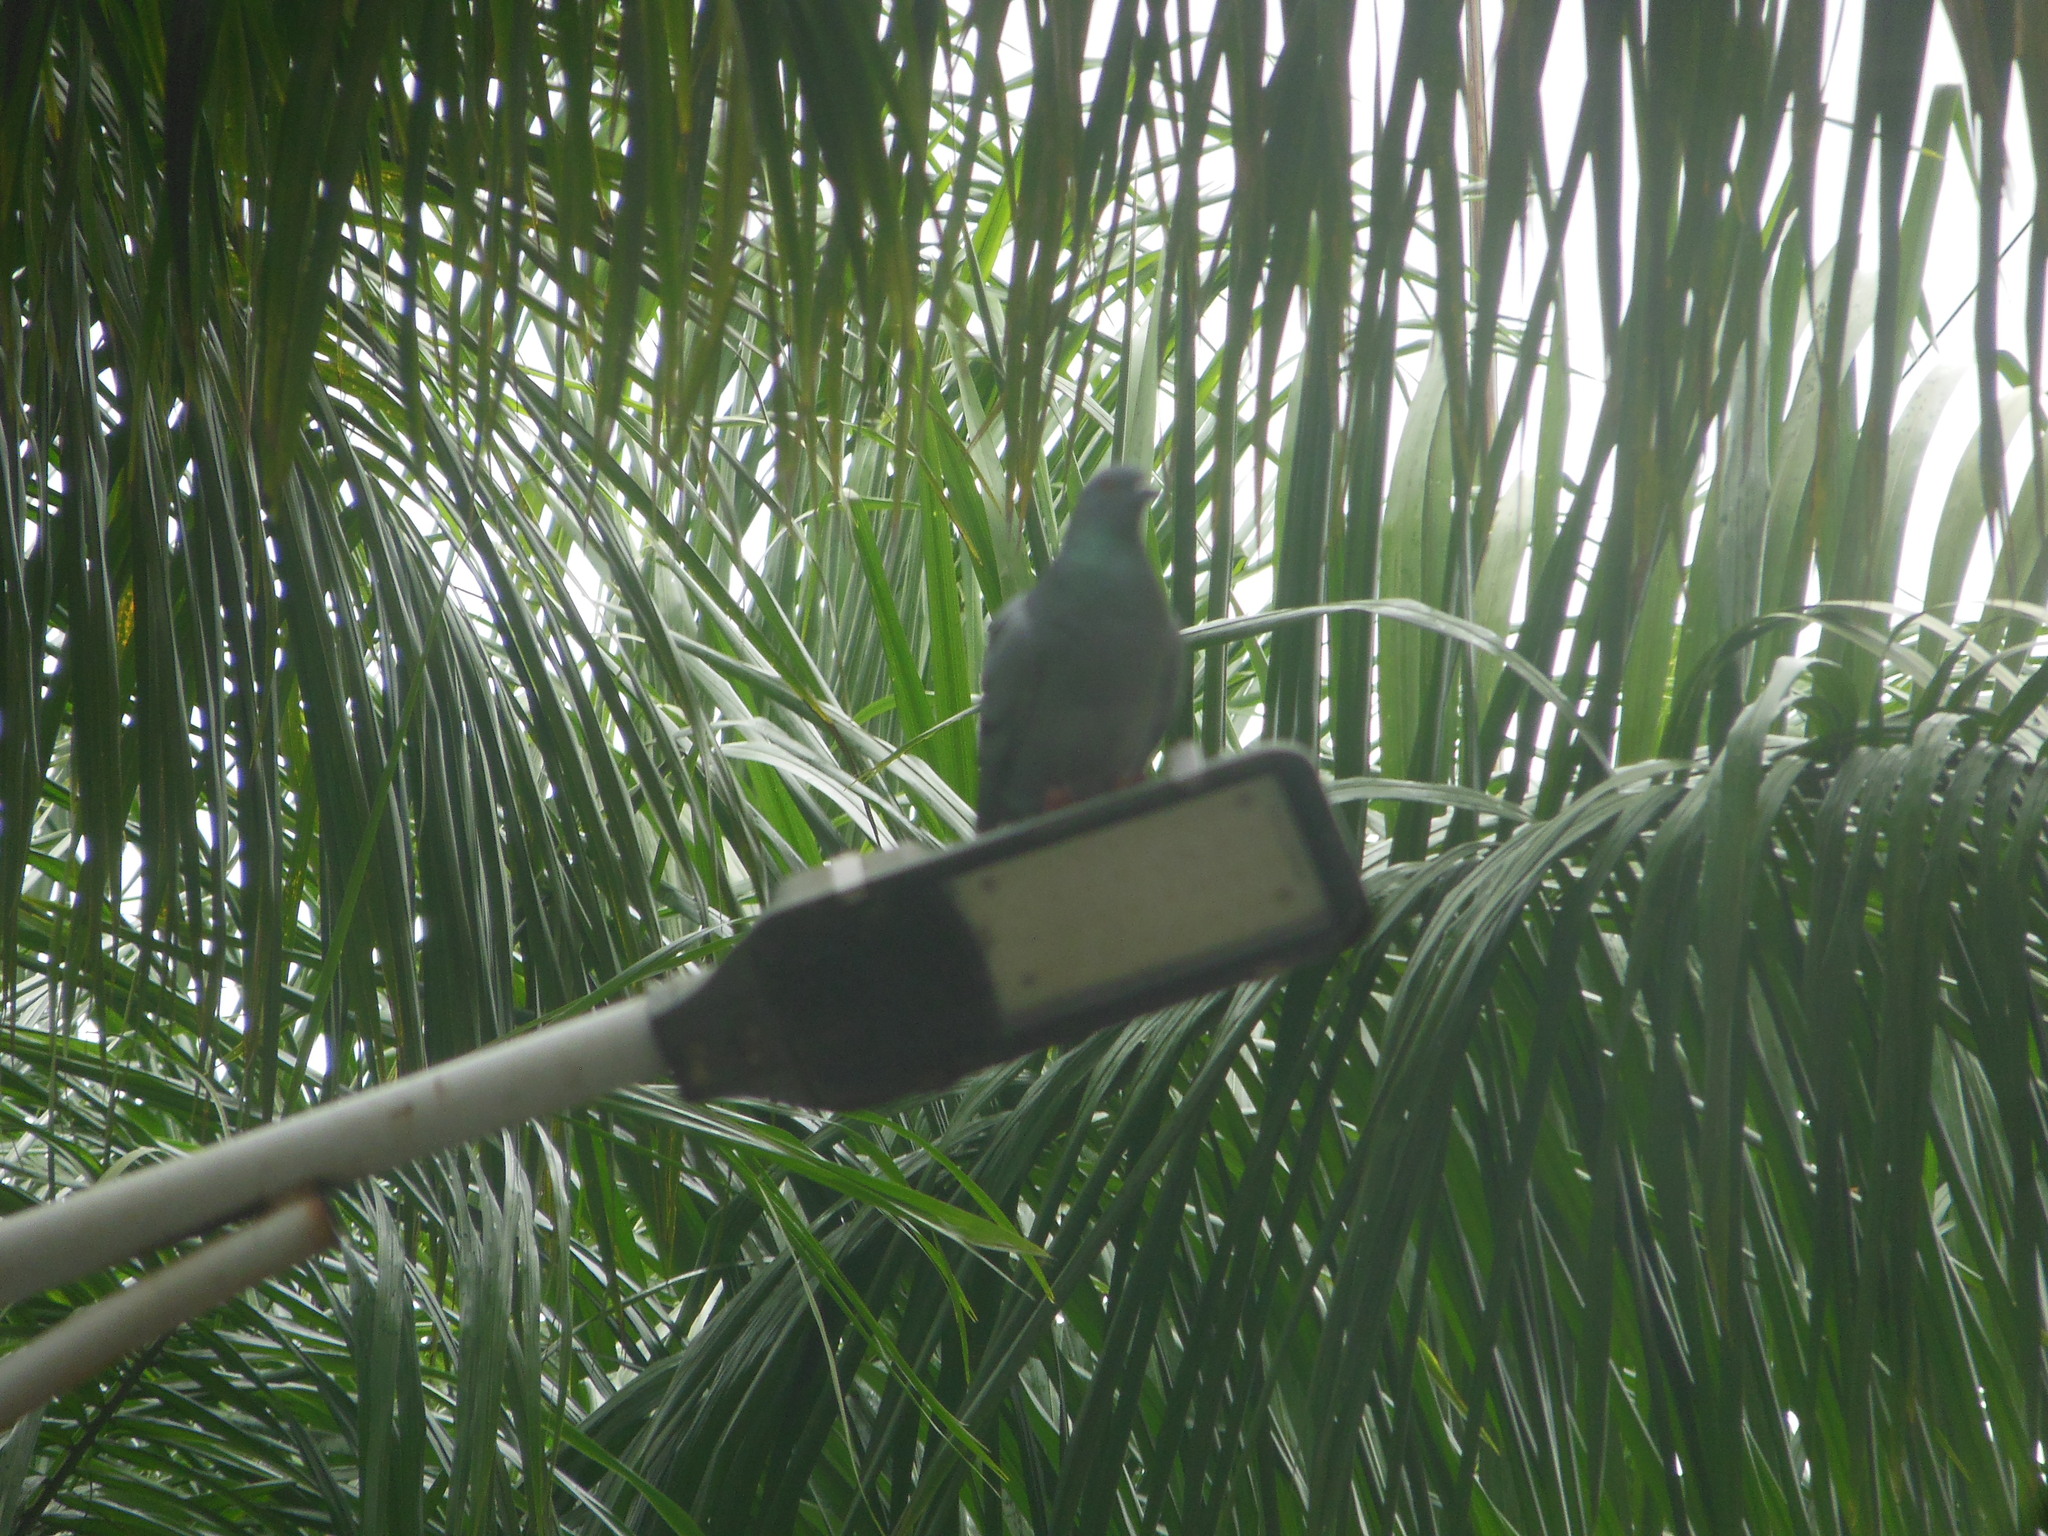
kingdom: Animalia
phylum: Chordata
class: Aves
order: Columbiformes
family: Columbidae
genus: Columba
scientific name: Columba livia
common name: Rock pigeon
